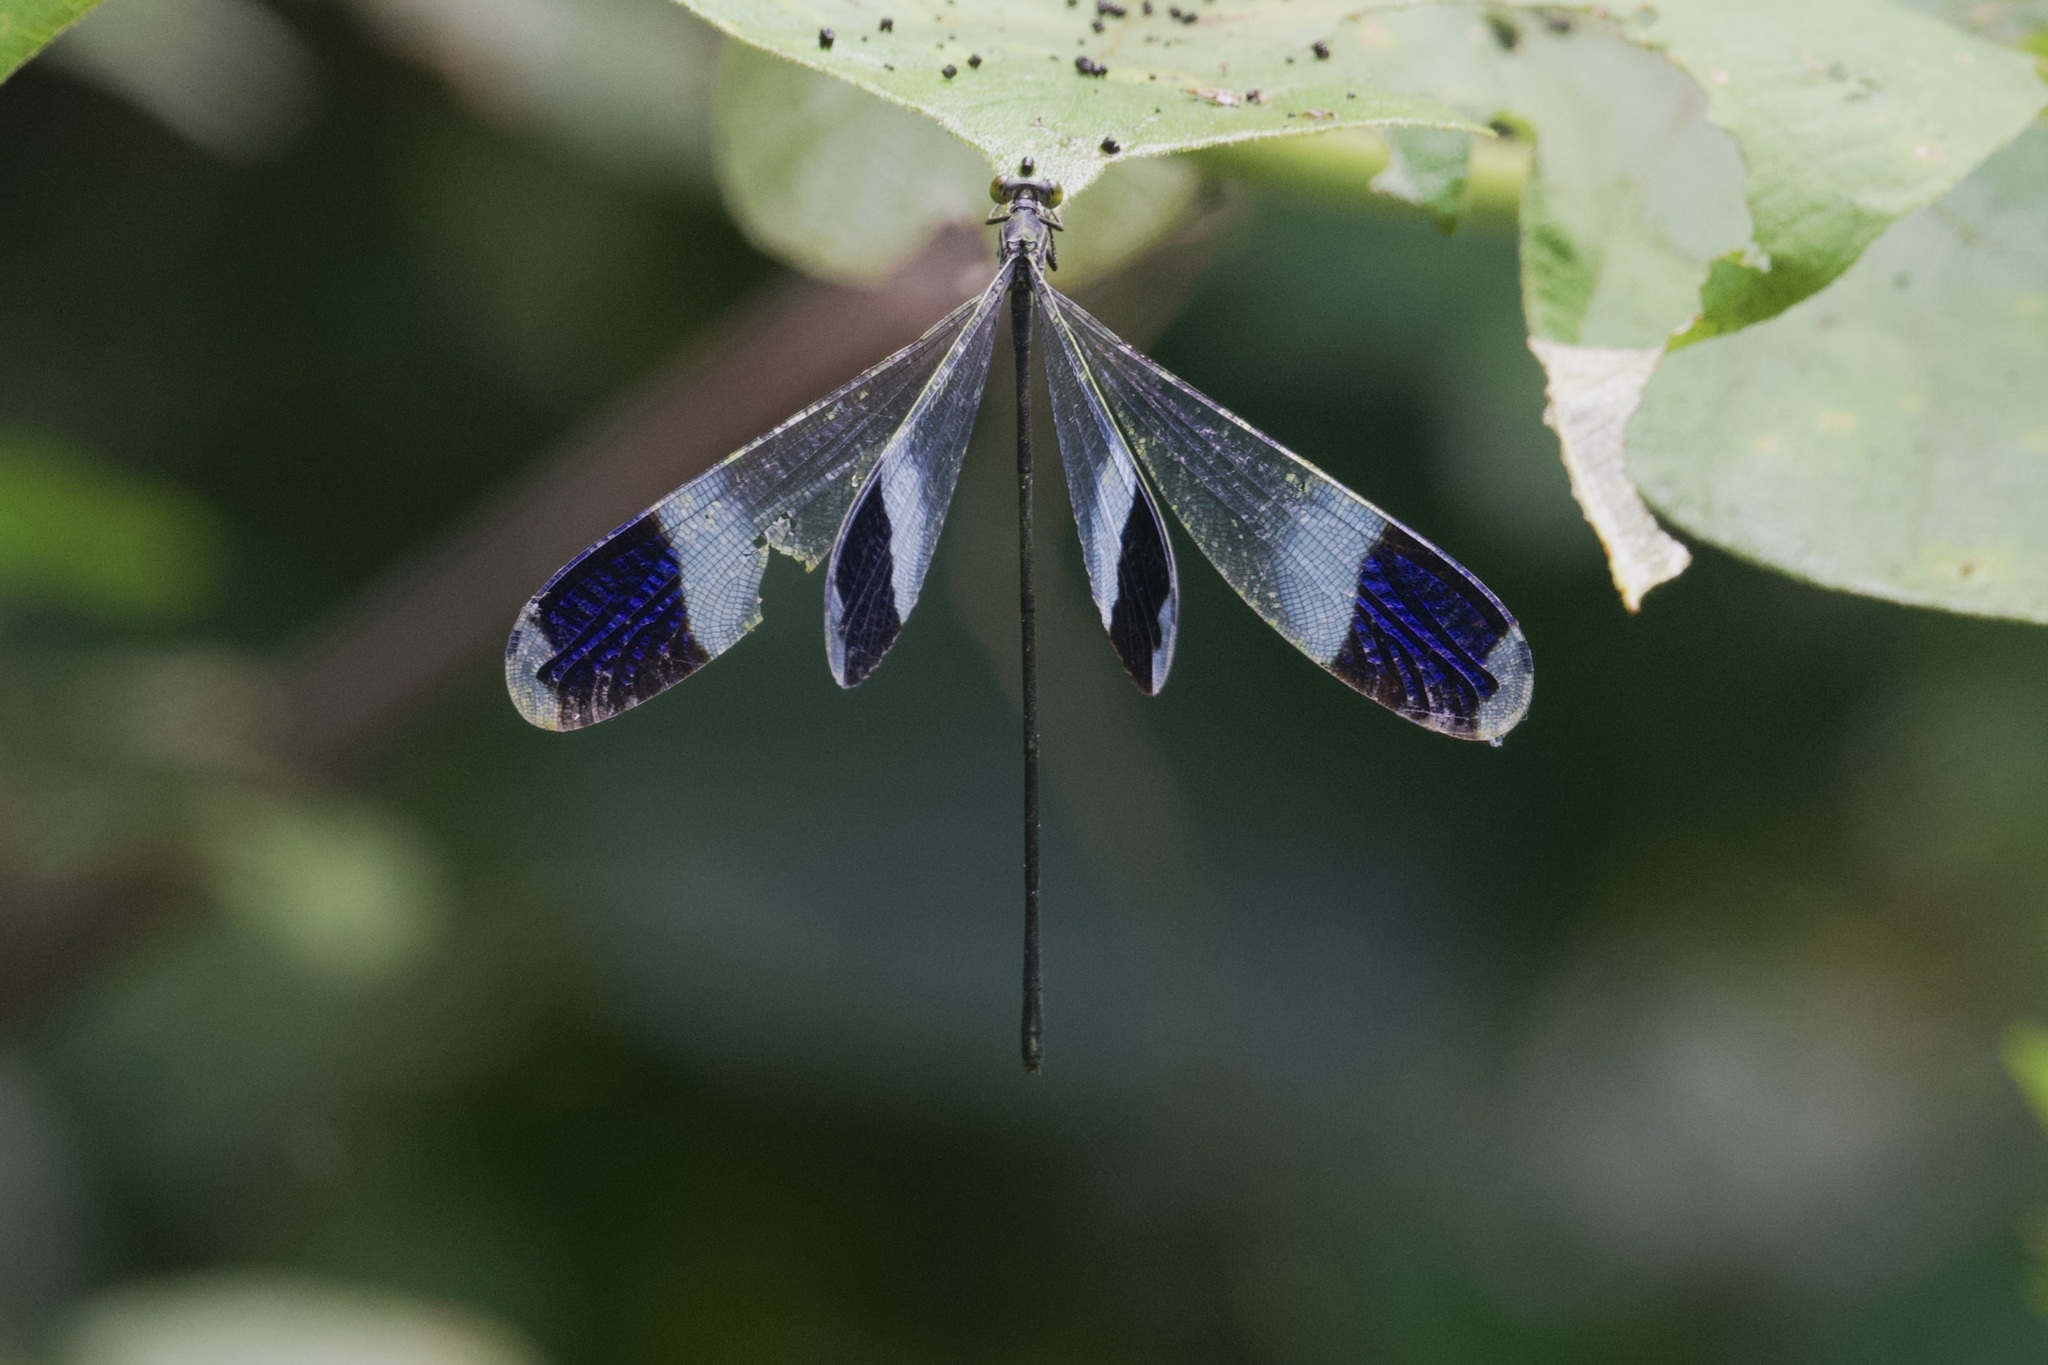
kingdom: Animalia
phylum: Arthropoda
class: Insecta
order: Odonata
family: Coenagrionidae
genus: Megaloprepus
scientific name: Megaloprepus caerulatus
